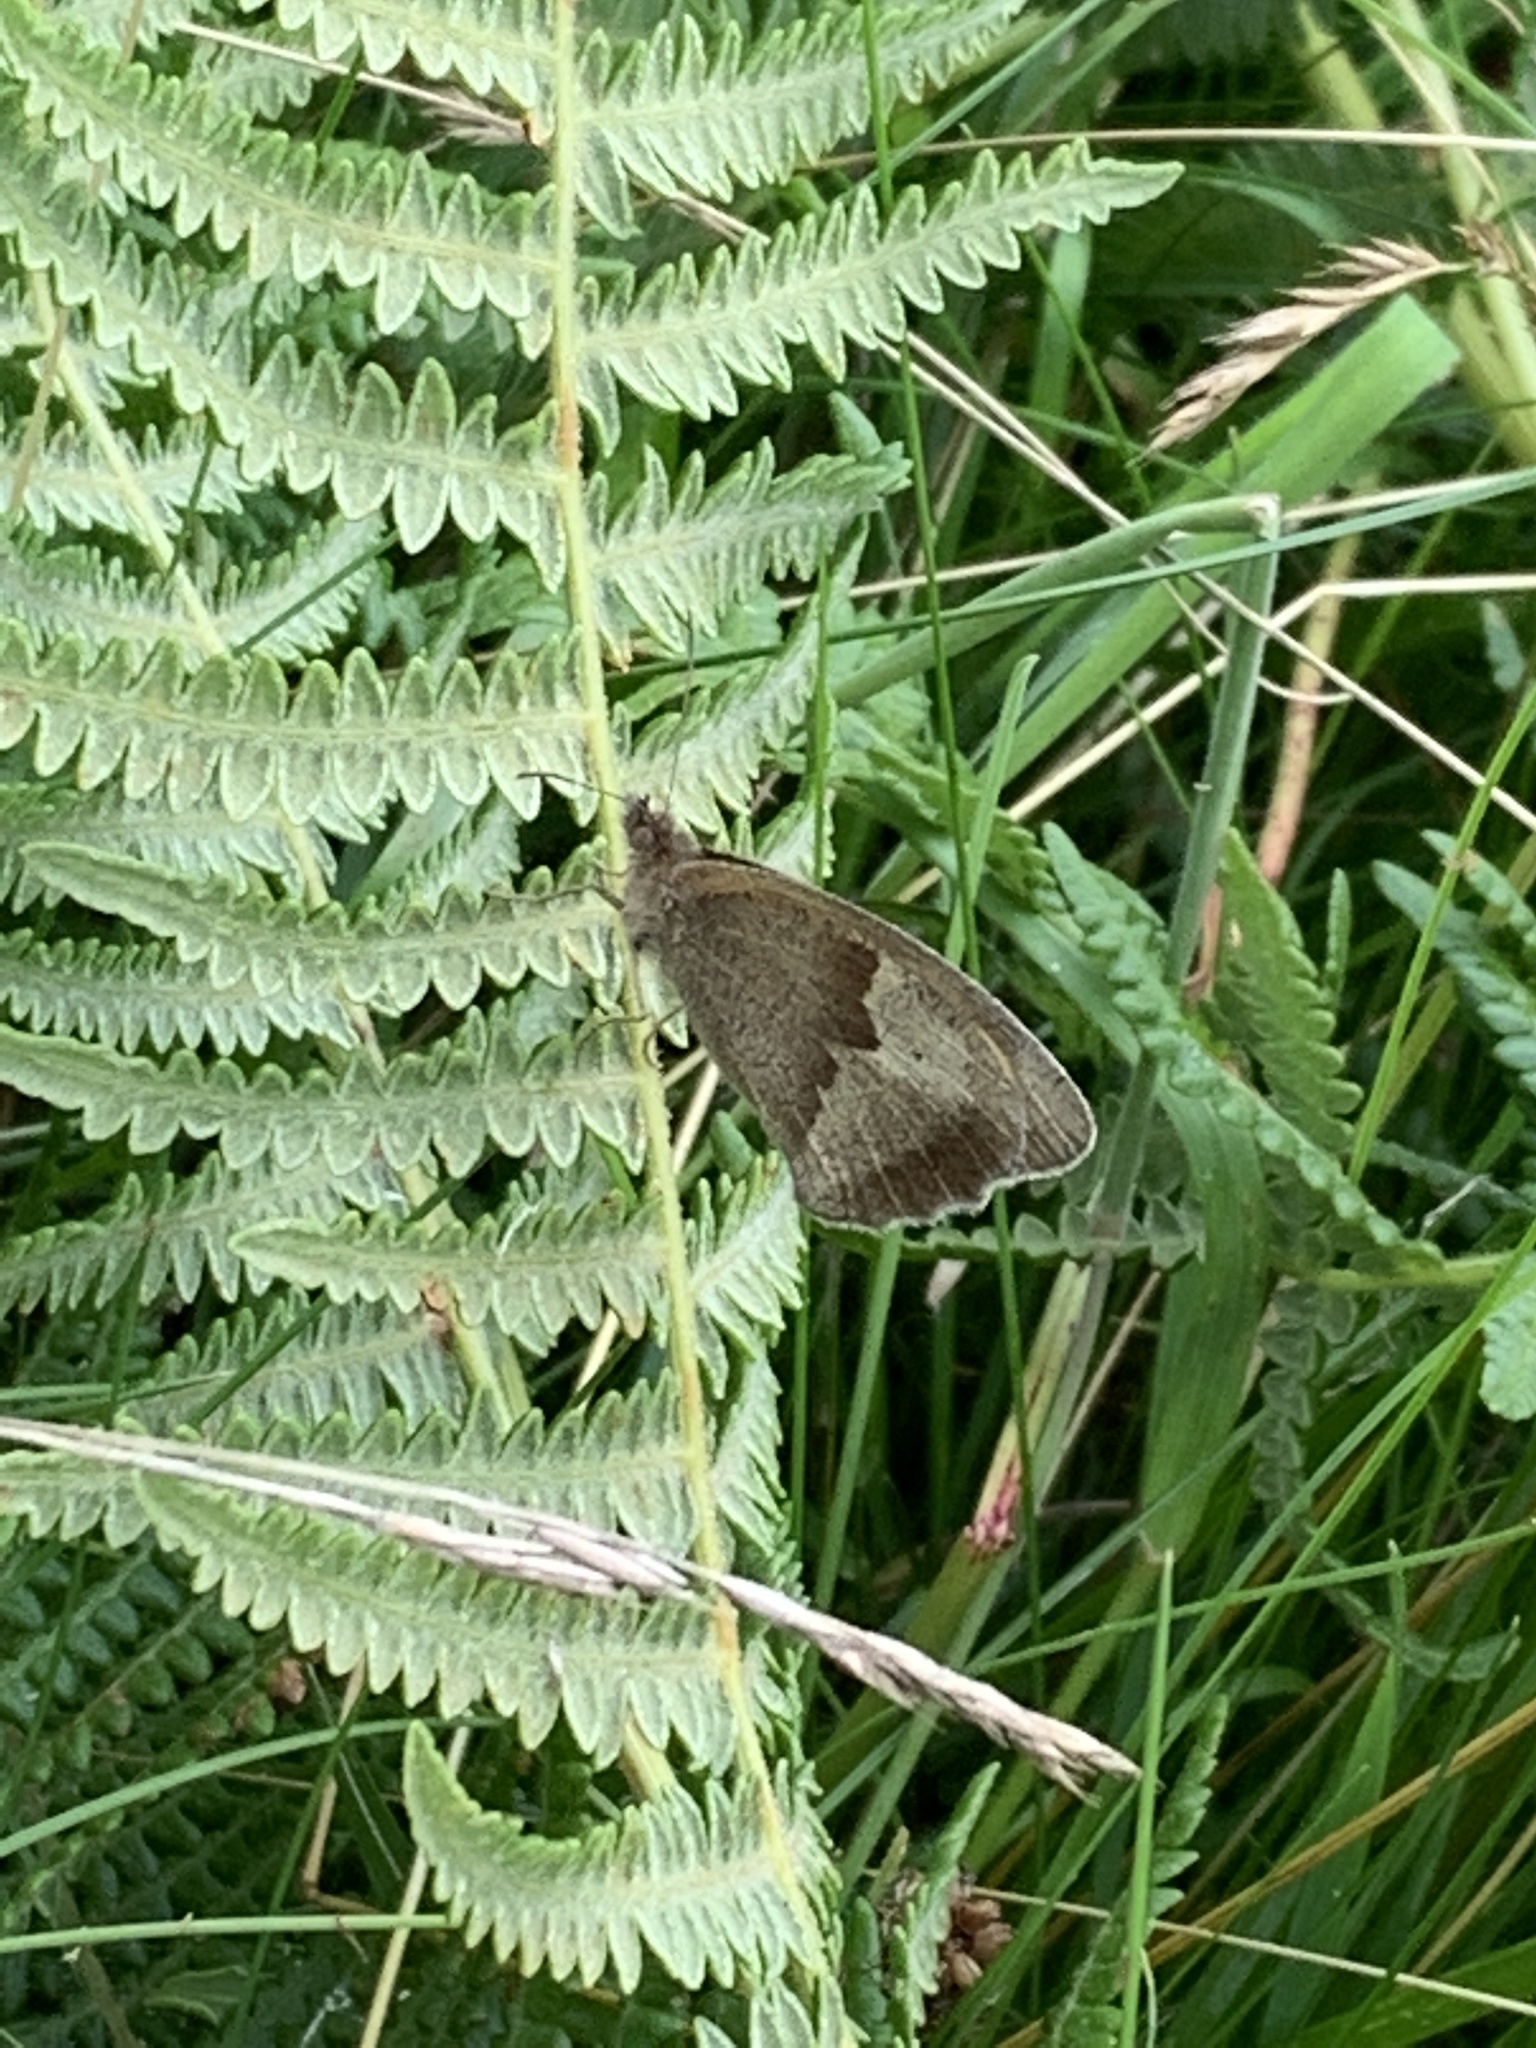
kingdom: Animalia
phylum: Arthropoda
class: Insecta
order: Lepidoptera
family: Nymphalidae
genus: Maniola
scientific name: Maniola jurtina
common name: Meadow brown
